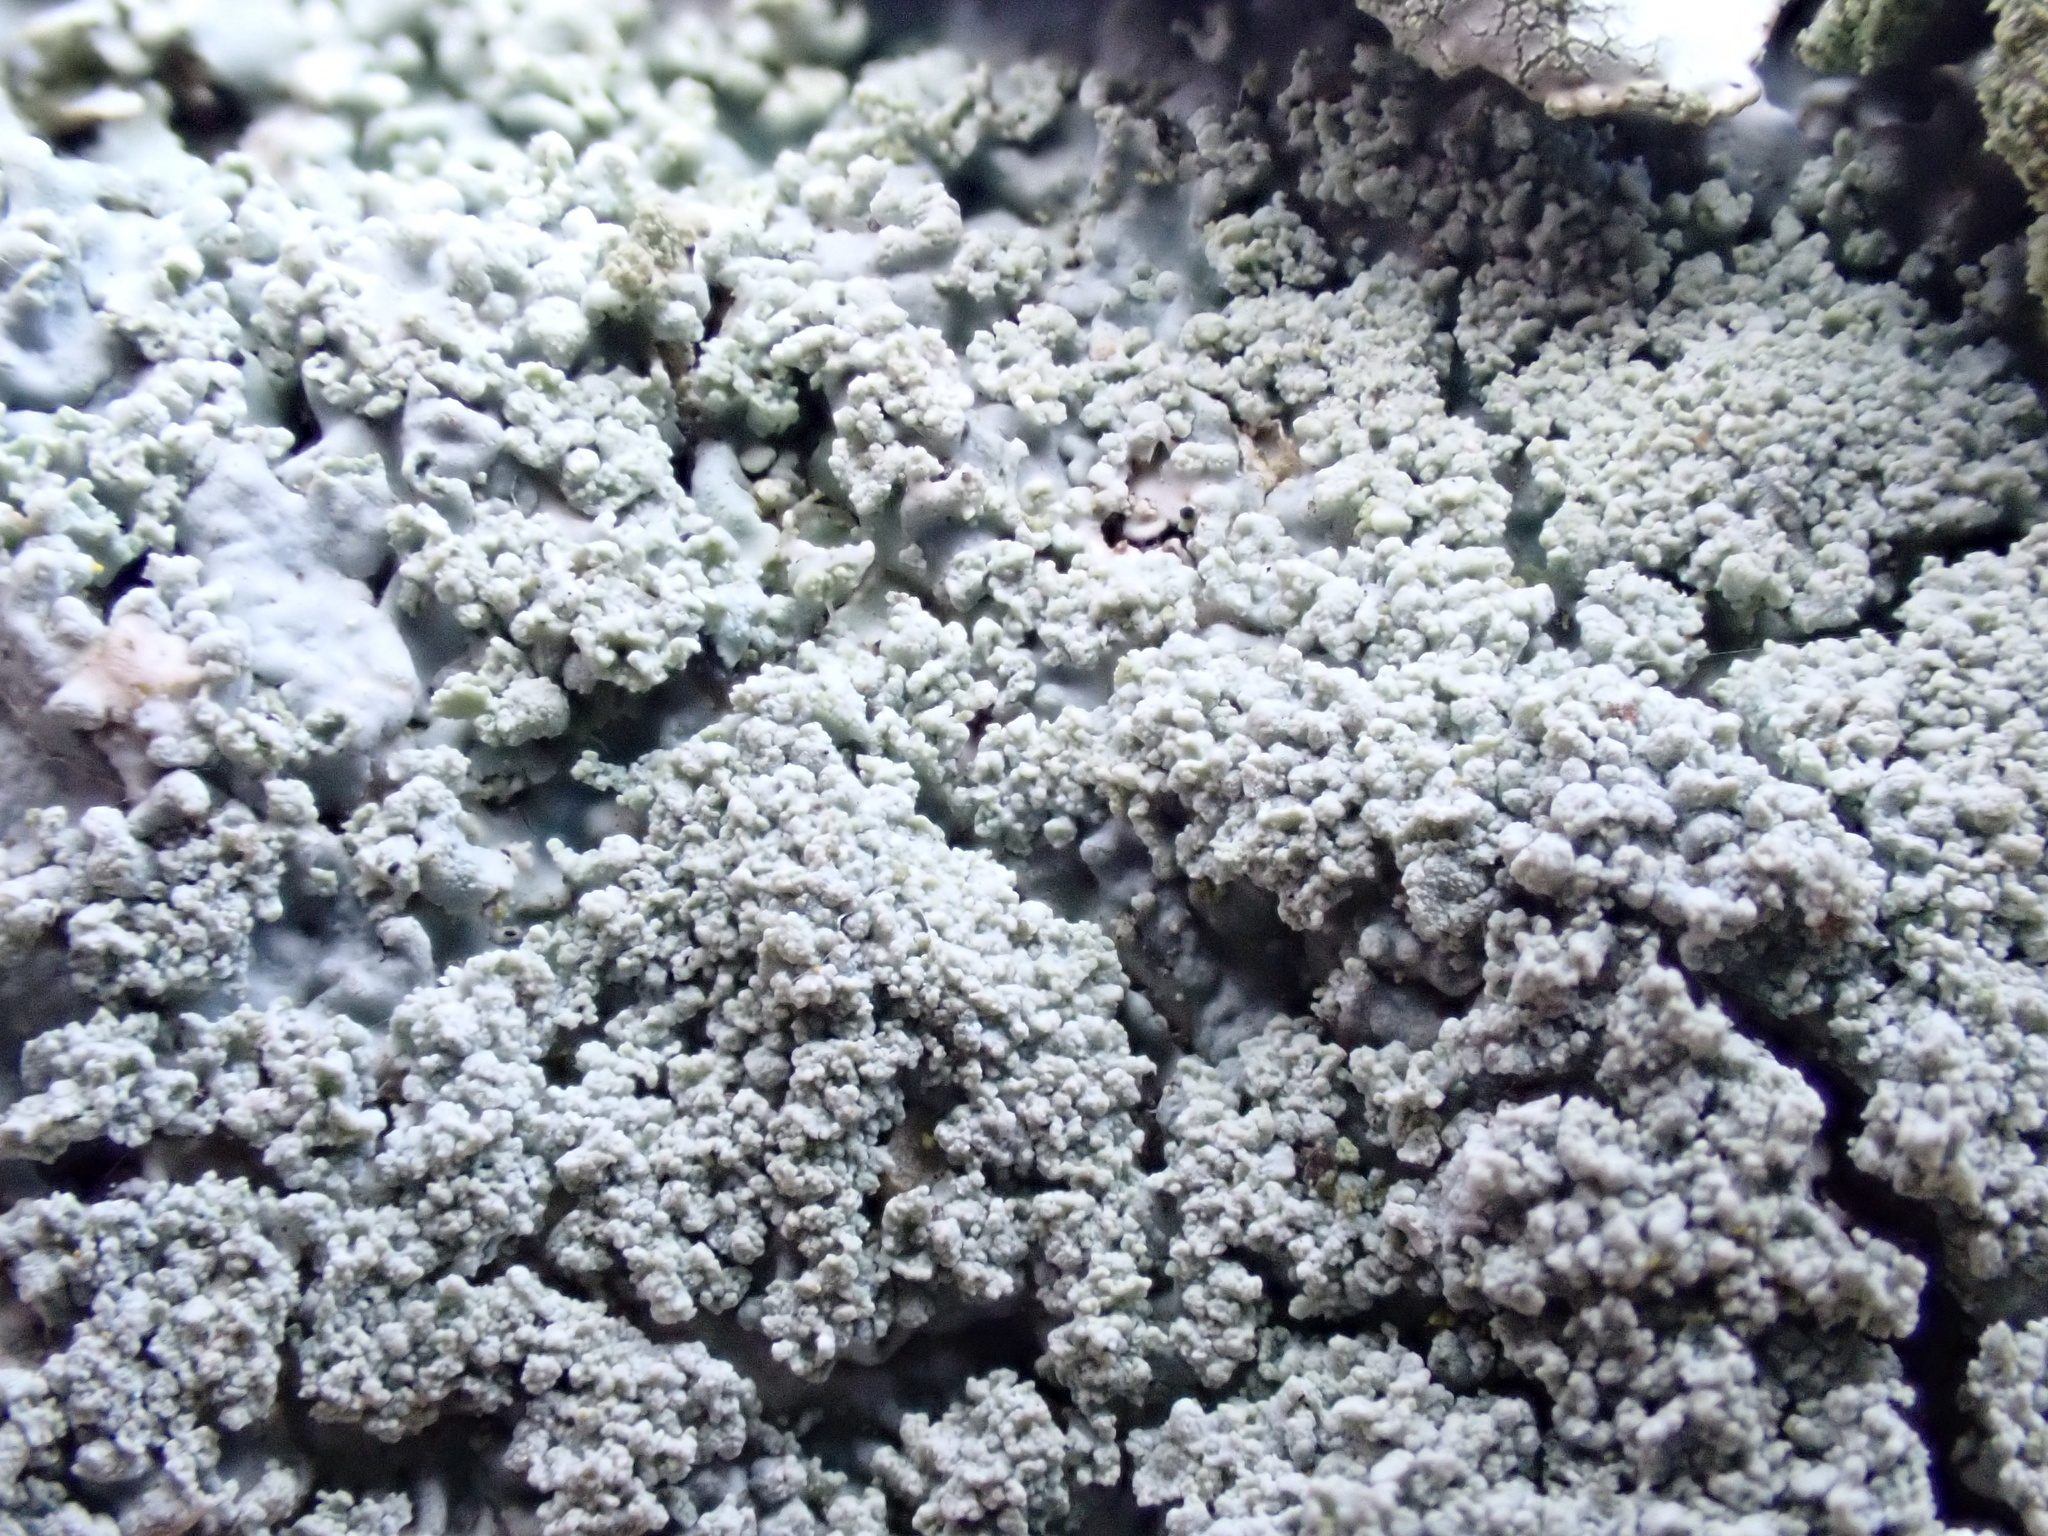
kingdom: Fungi
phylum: Ascomycota
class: Lecanoromycetes
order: Caliciales
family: Physciaceae
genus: Physcia
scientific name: Physcia clementei
